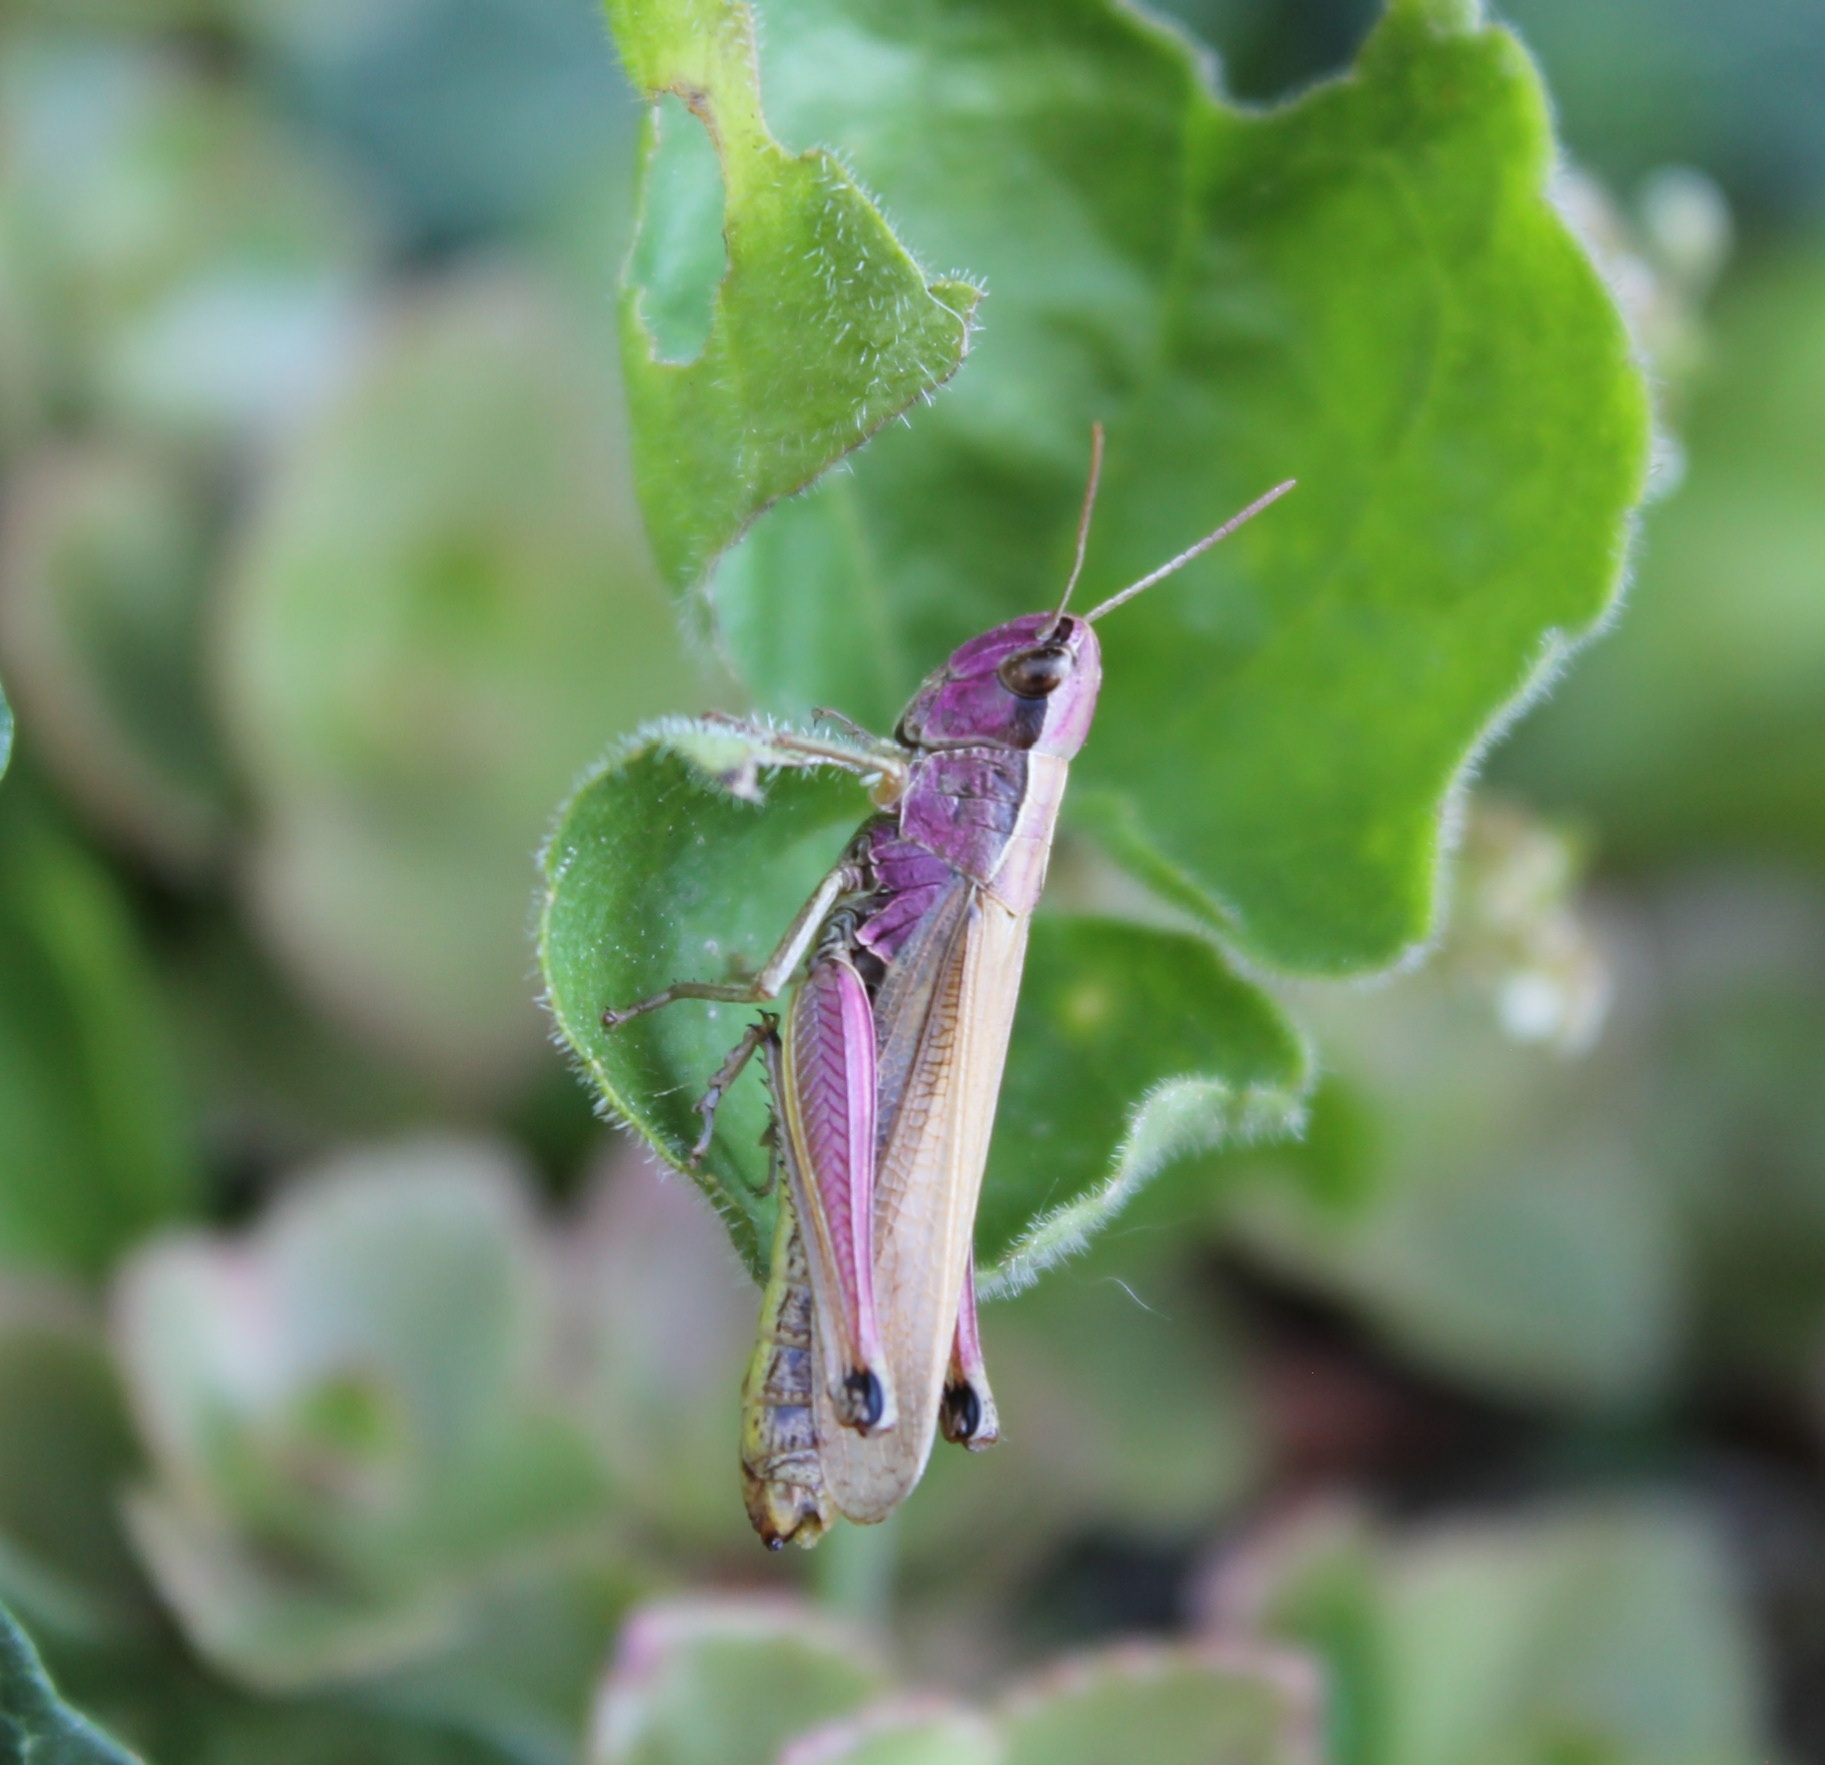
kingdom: Animalia
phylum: Arthropoda
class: Insecta
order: Orthoptera
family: Acrididae
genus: Pseudochorthippus
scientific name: Pseudochorthippus parallelus
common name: Meadow grasshopper
